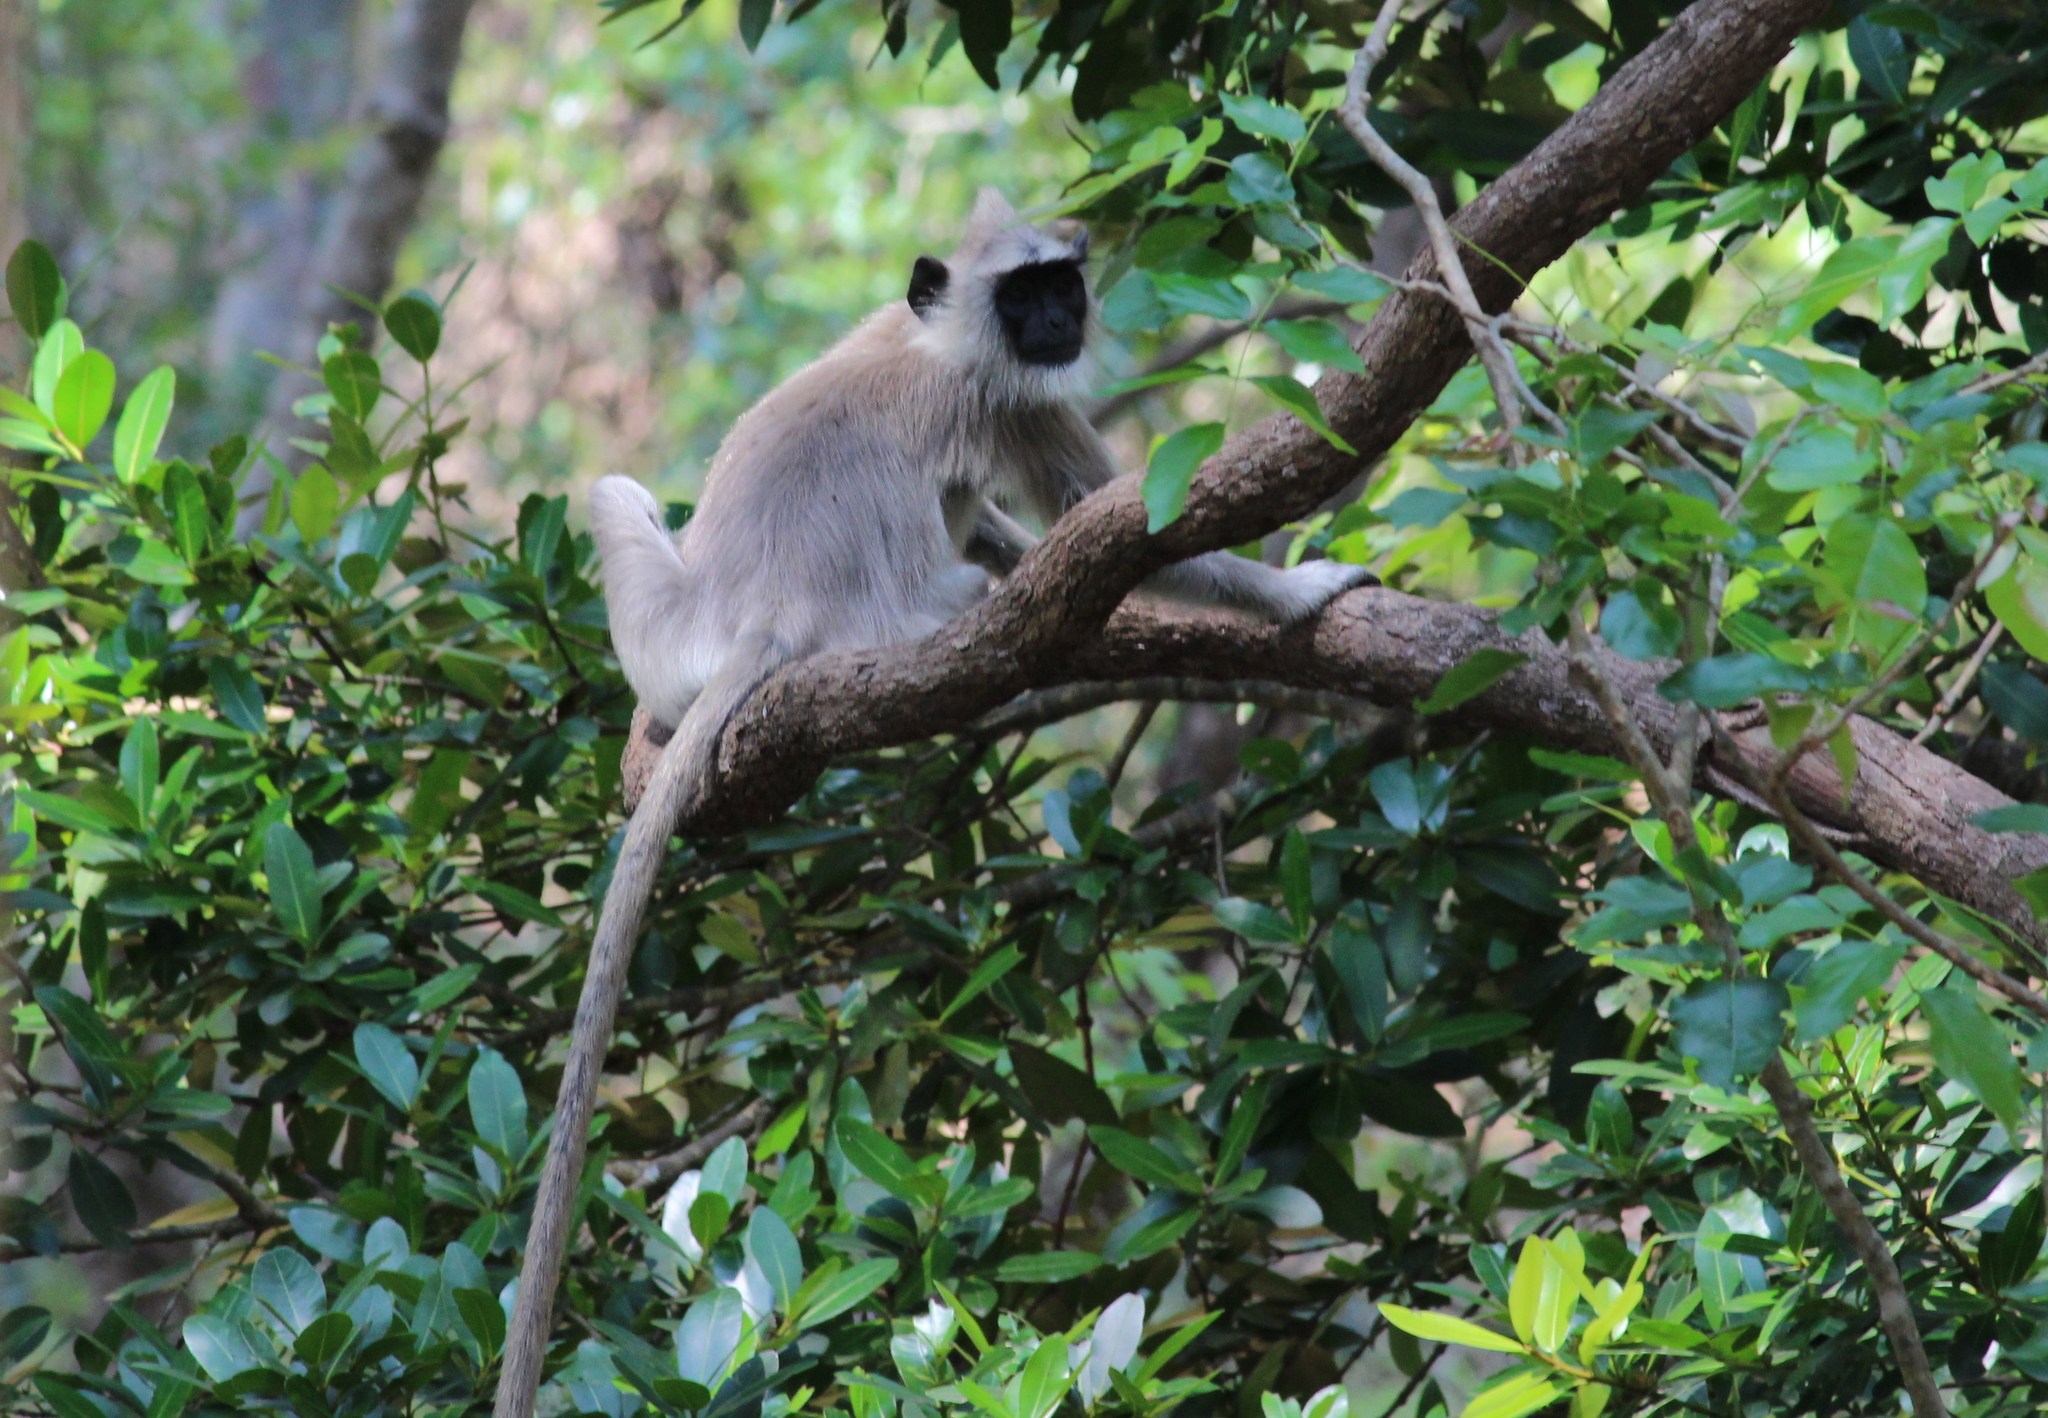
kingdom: Animalia
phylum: Chordata
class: Mammalia
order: Primates
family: Cercopithecidae
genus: Semnopithecus
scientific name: Semnopithecus priam
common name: Tufted gray langur
